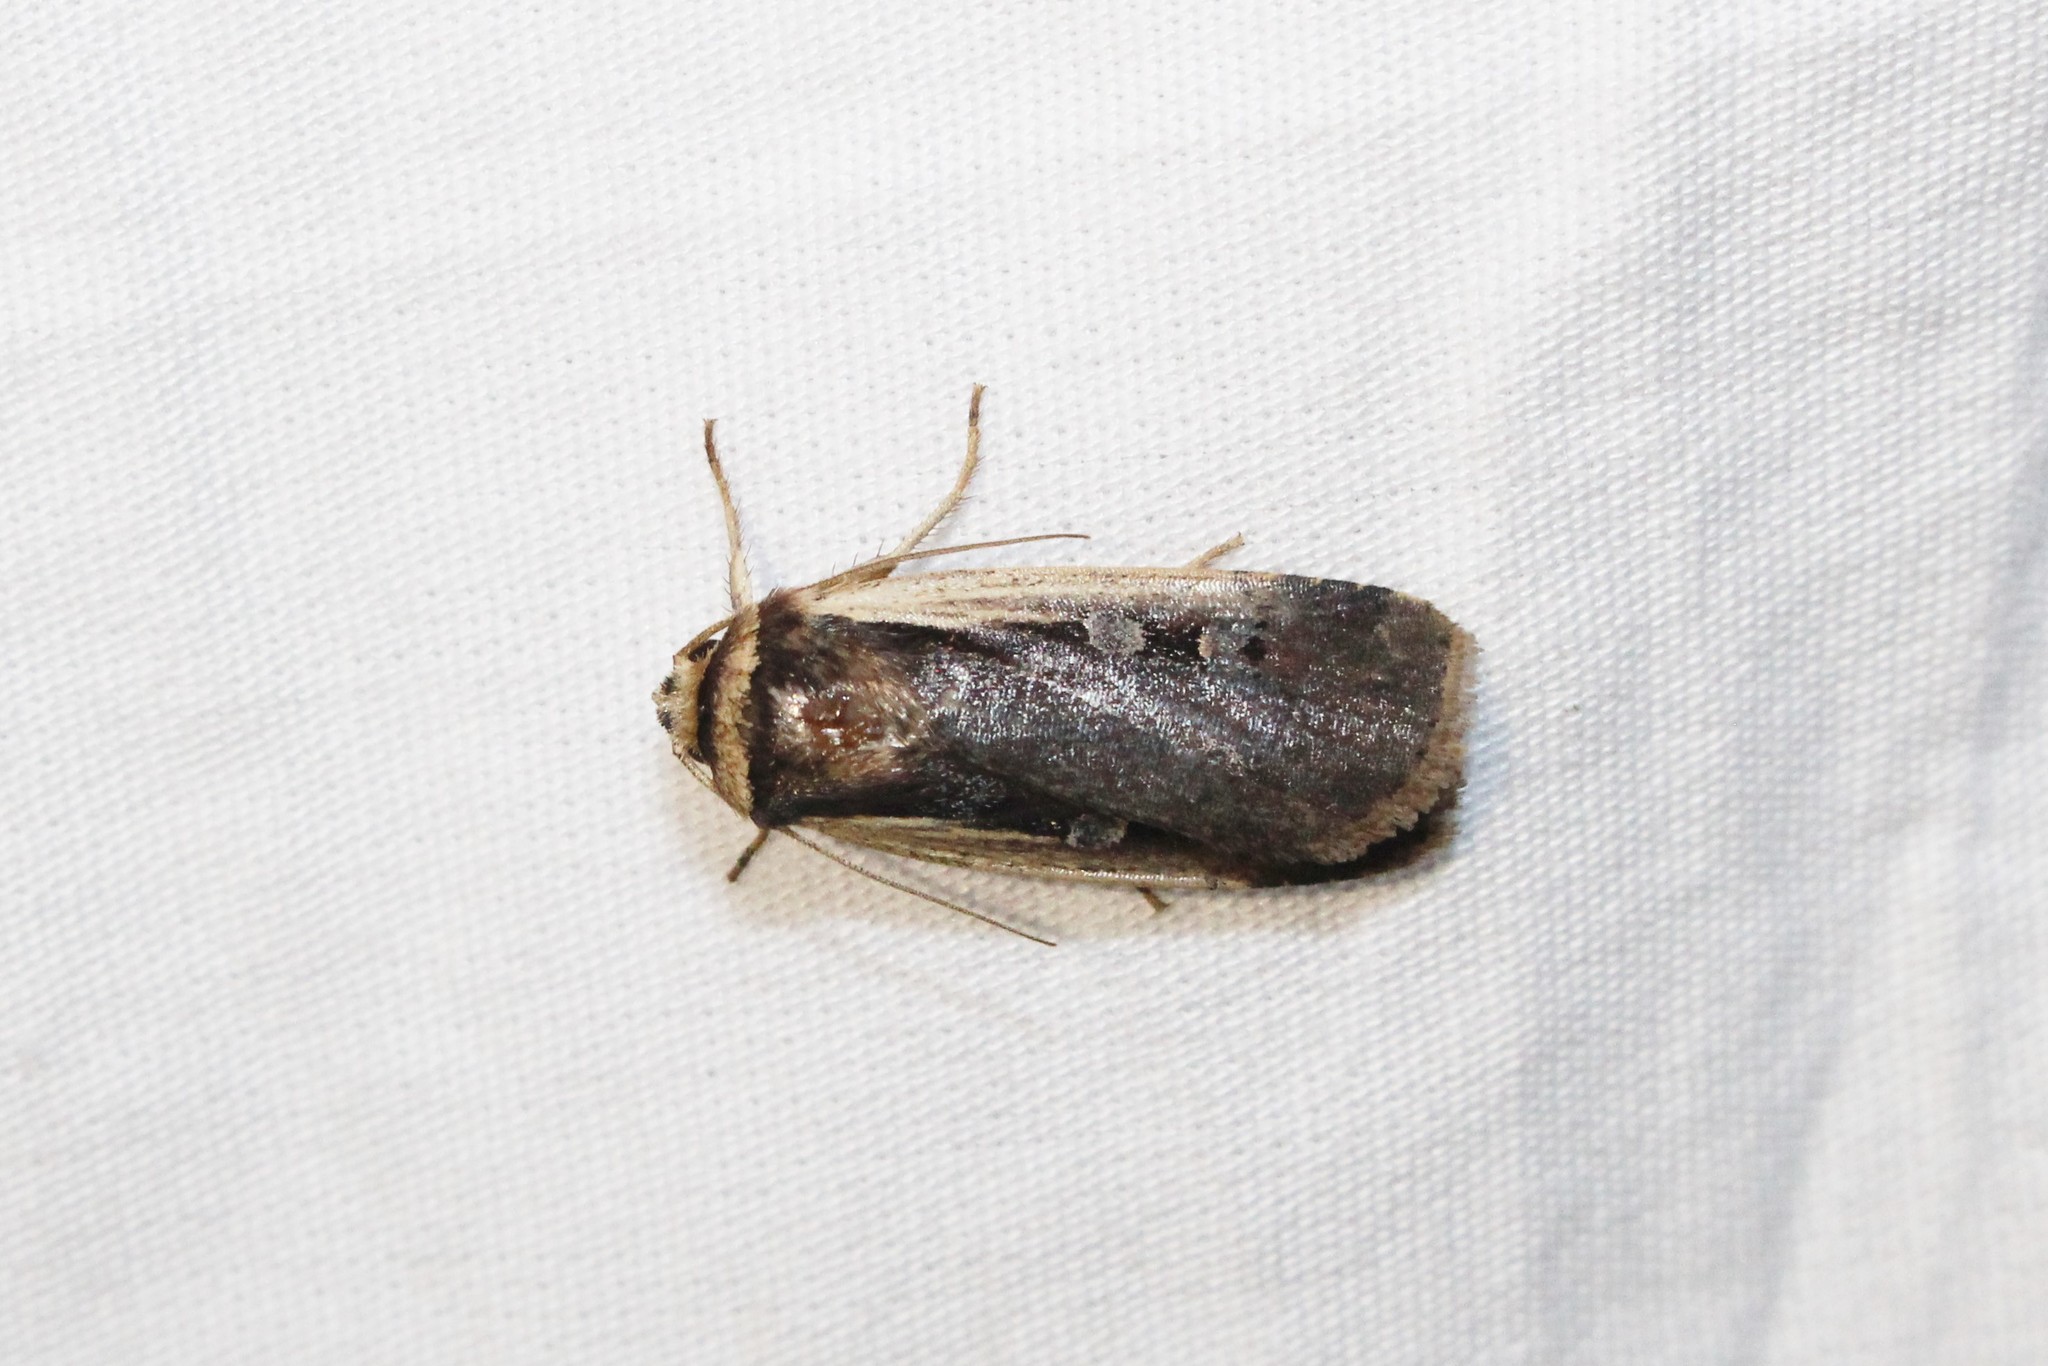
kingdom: Animalia
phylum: Arthropoda
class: Insecta
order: Lepidoptera
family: Noctuidae
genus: Ochropleura
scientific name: Ochropleura implecta
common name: Flame-shouldered dart
